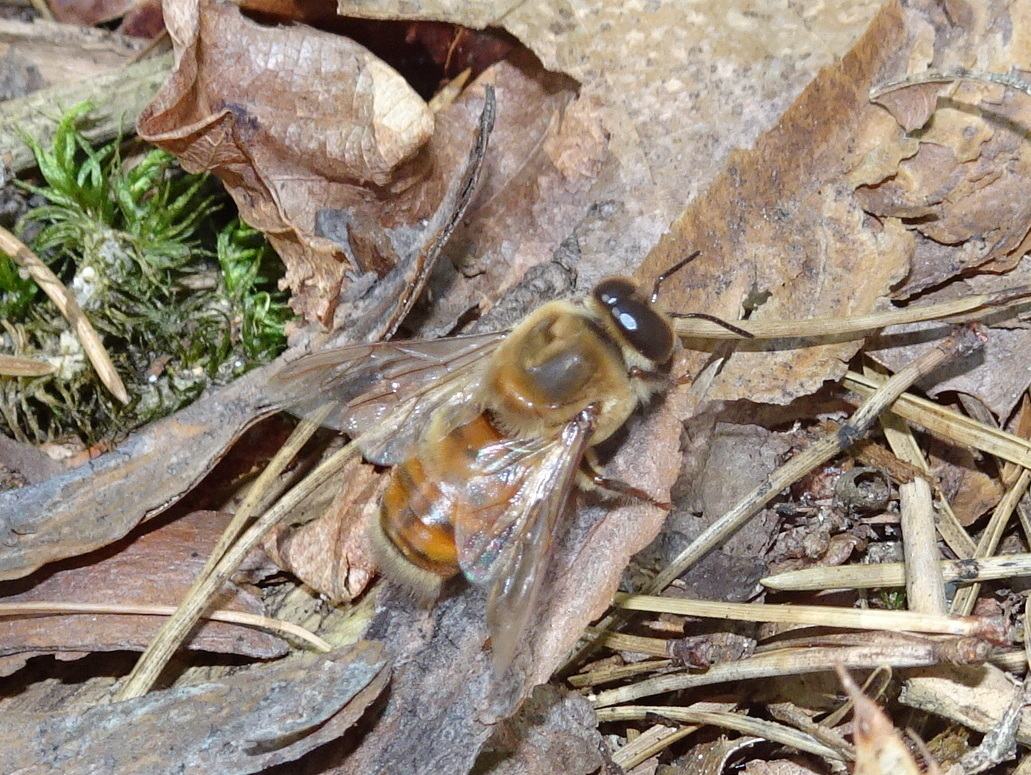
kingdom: Animalia
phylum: Arthropoda
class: Insecta
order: Hymenoptera
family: Apidae
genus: Apis
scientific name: Apis mellifera
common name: Honey bee
